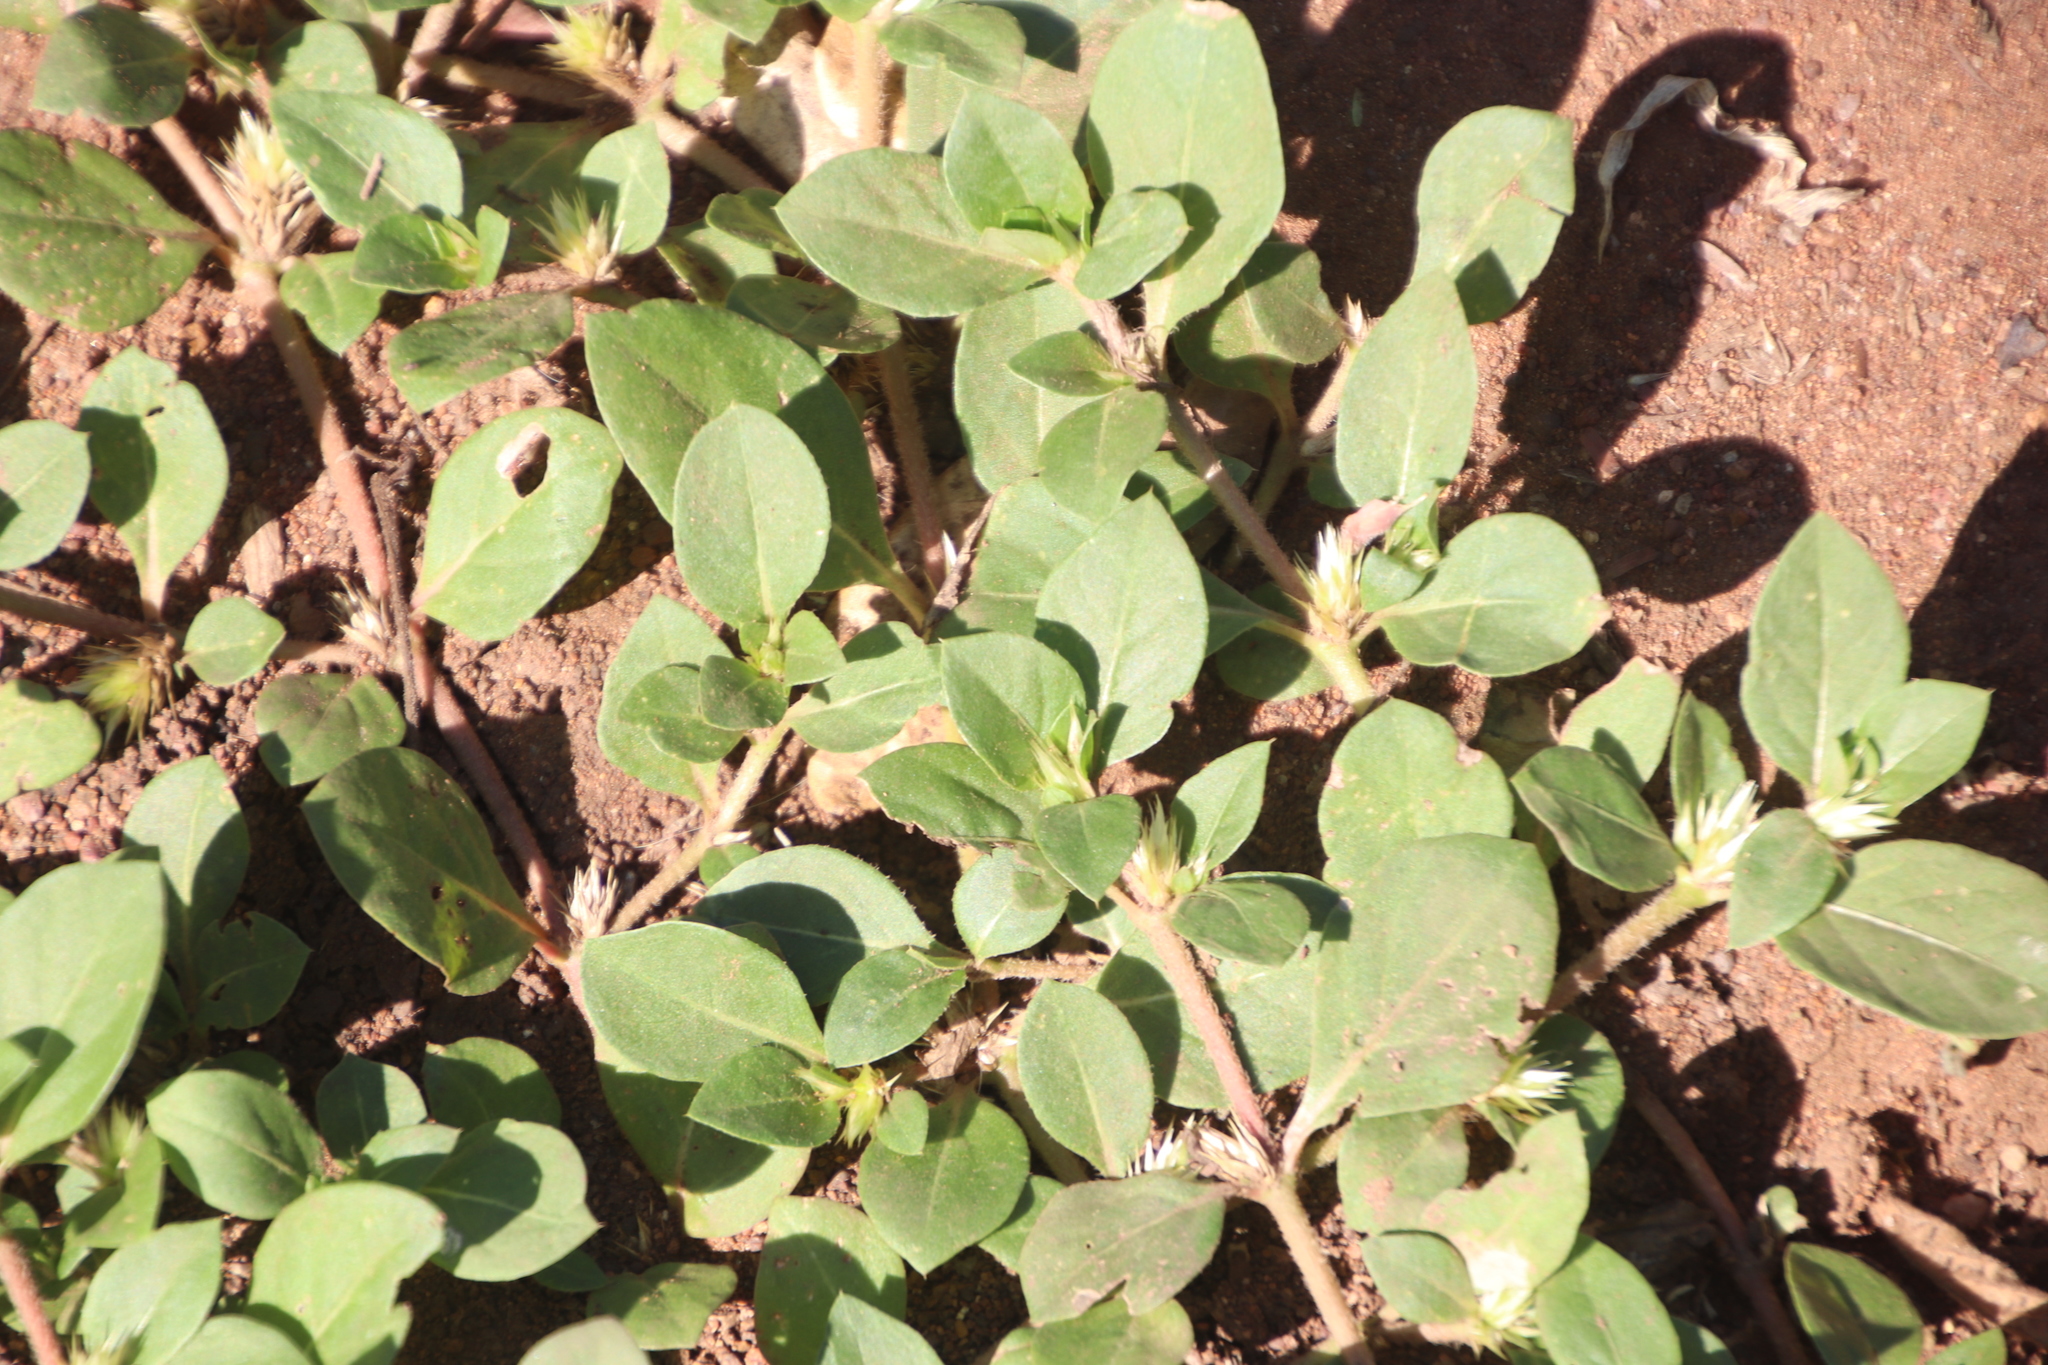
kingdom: Plantae
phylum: Tracheophyta
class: Magnoliopsida
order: Caryophyllales
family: Amaranthaceae
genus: Alternanthera
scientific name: Alternanthera pungens
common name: Khakiweed
